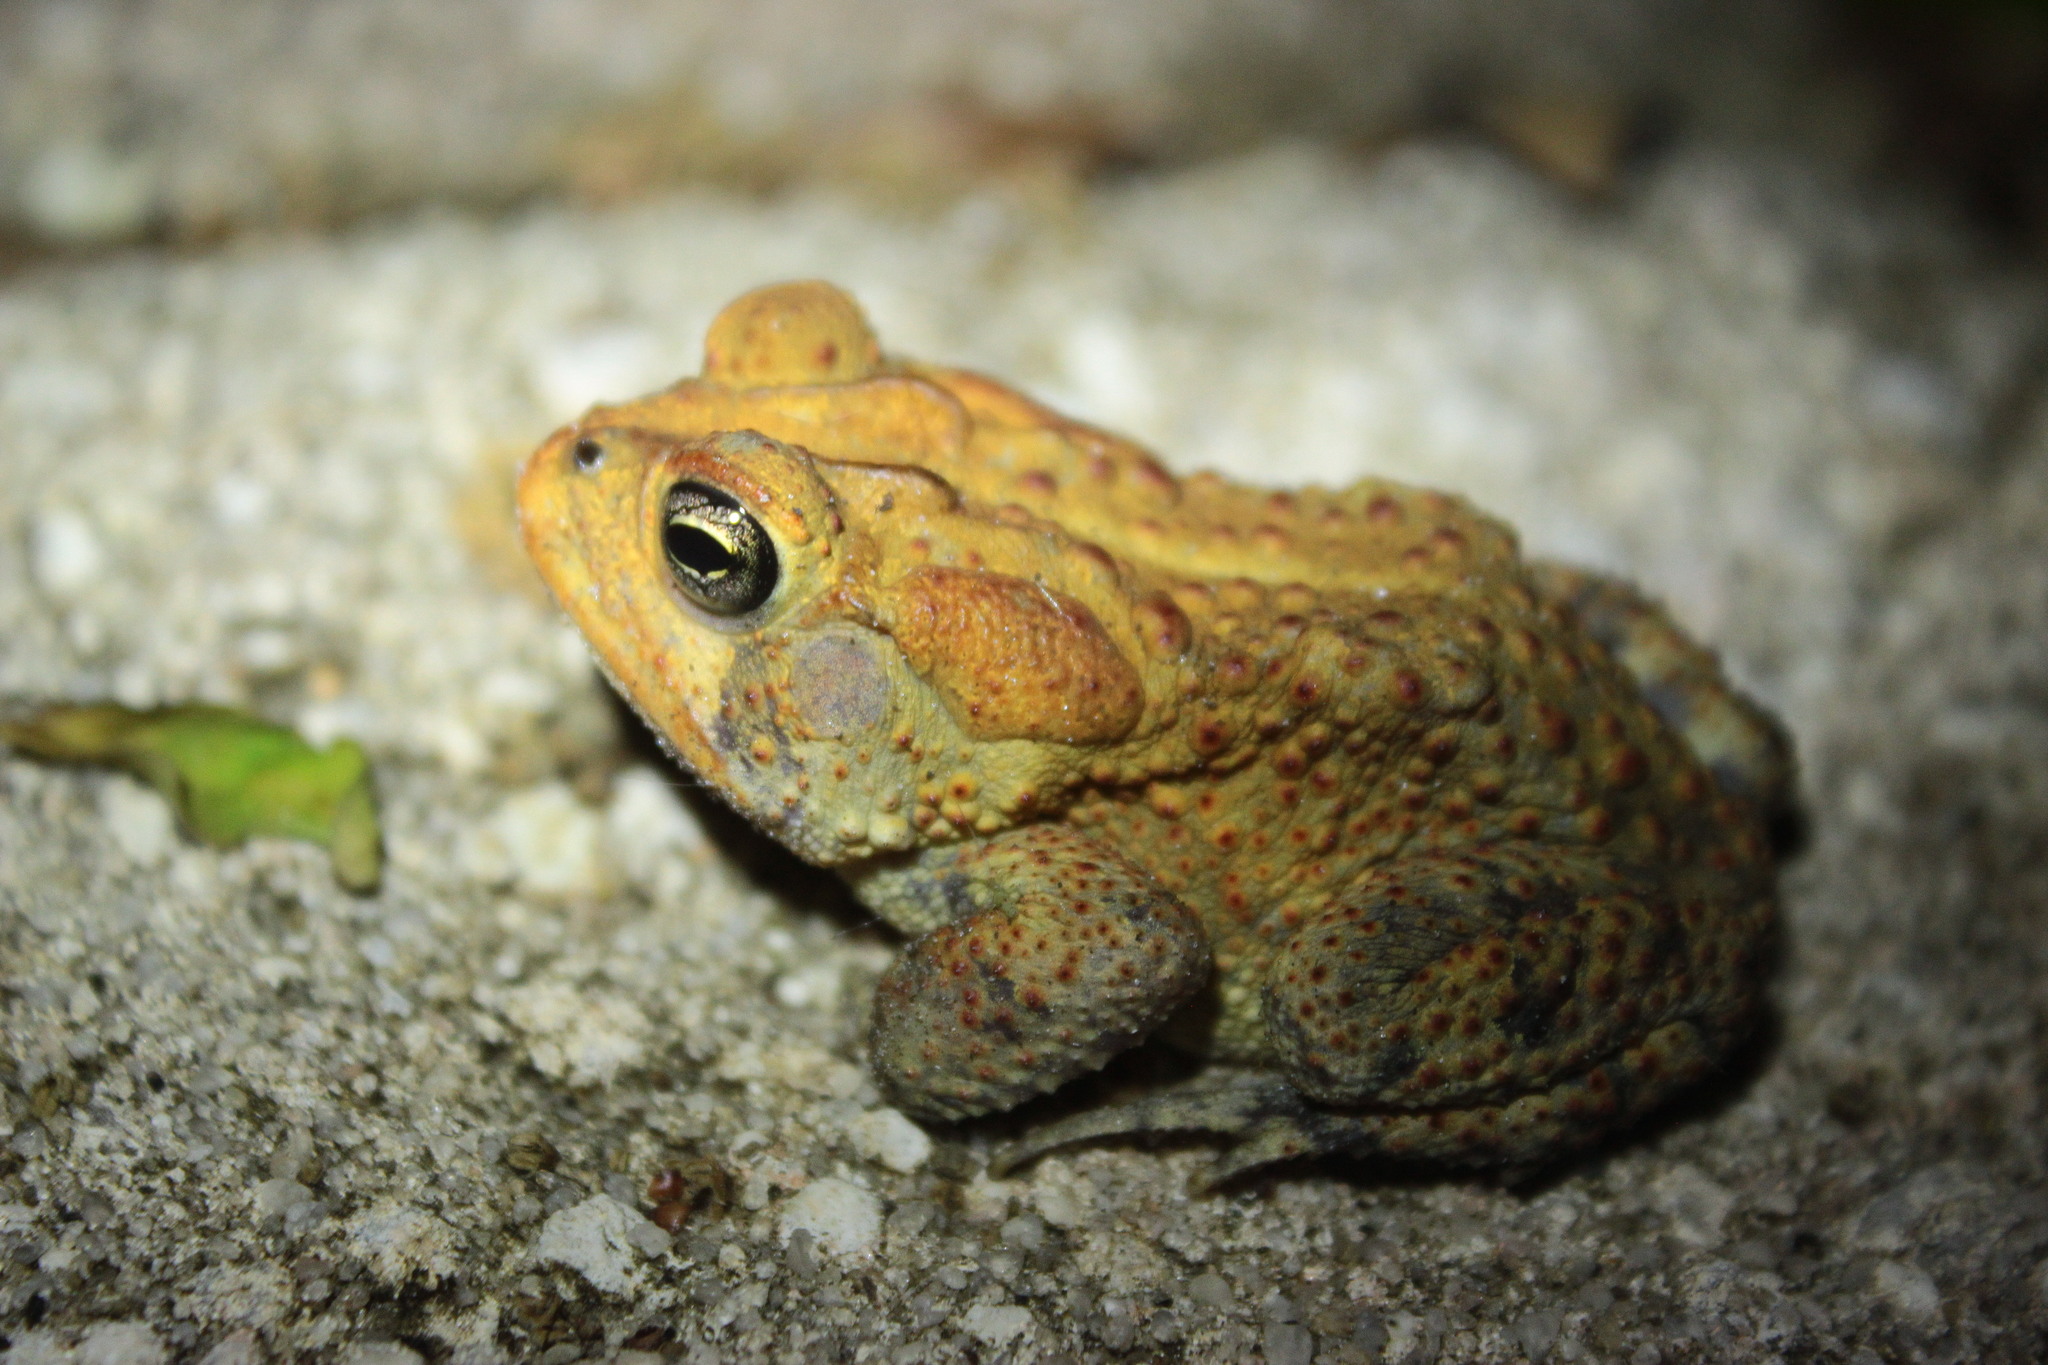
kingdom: Animalia
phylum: Chordata
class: Amphibia
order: Anura
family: Bufonidae
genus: Anaxyrus
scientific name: Anaxyrus terrestris
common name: Southern toad
